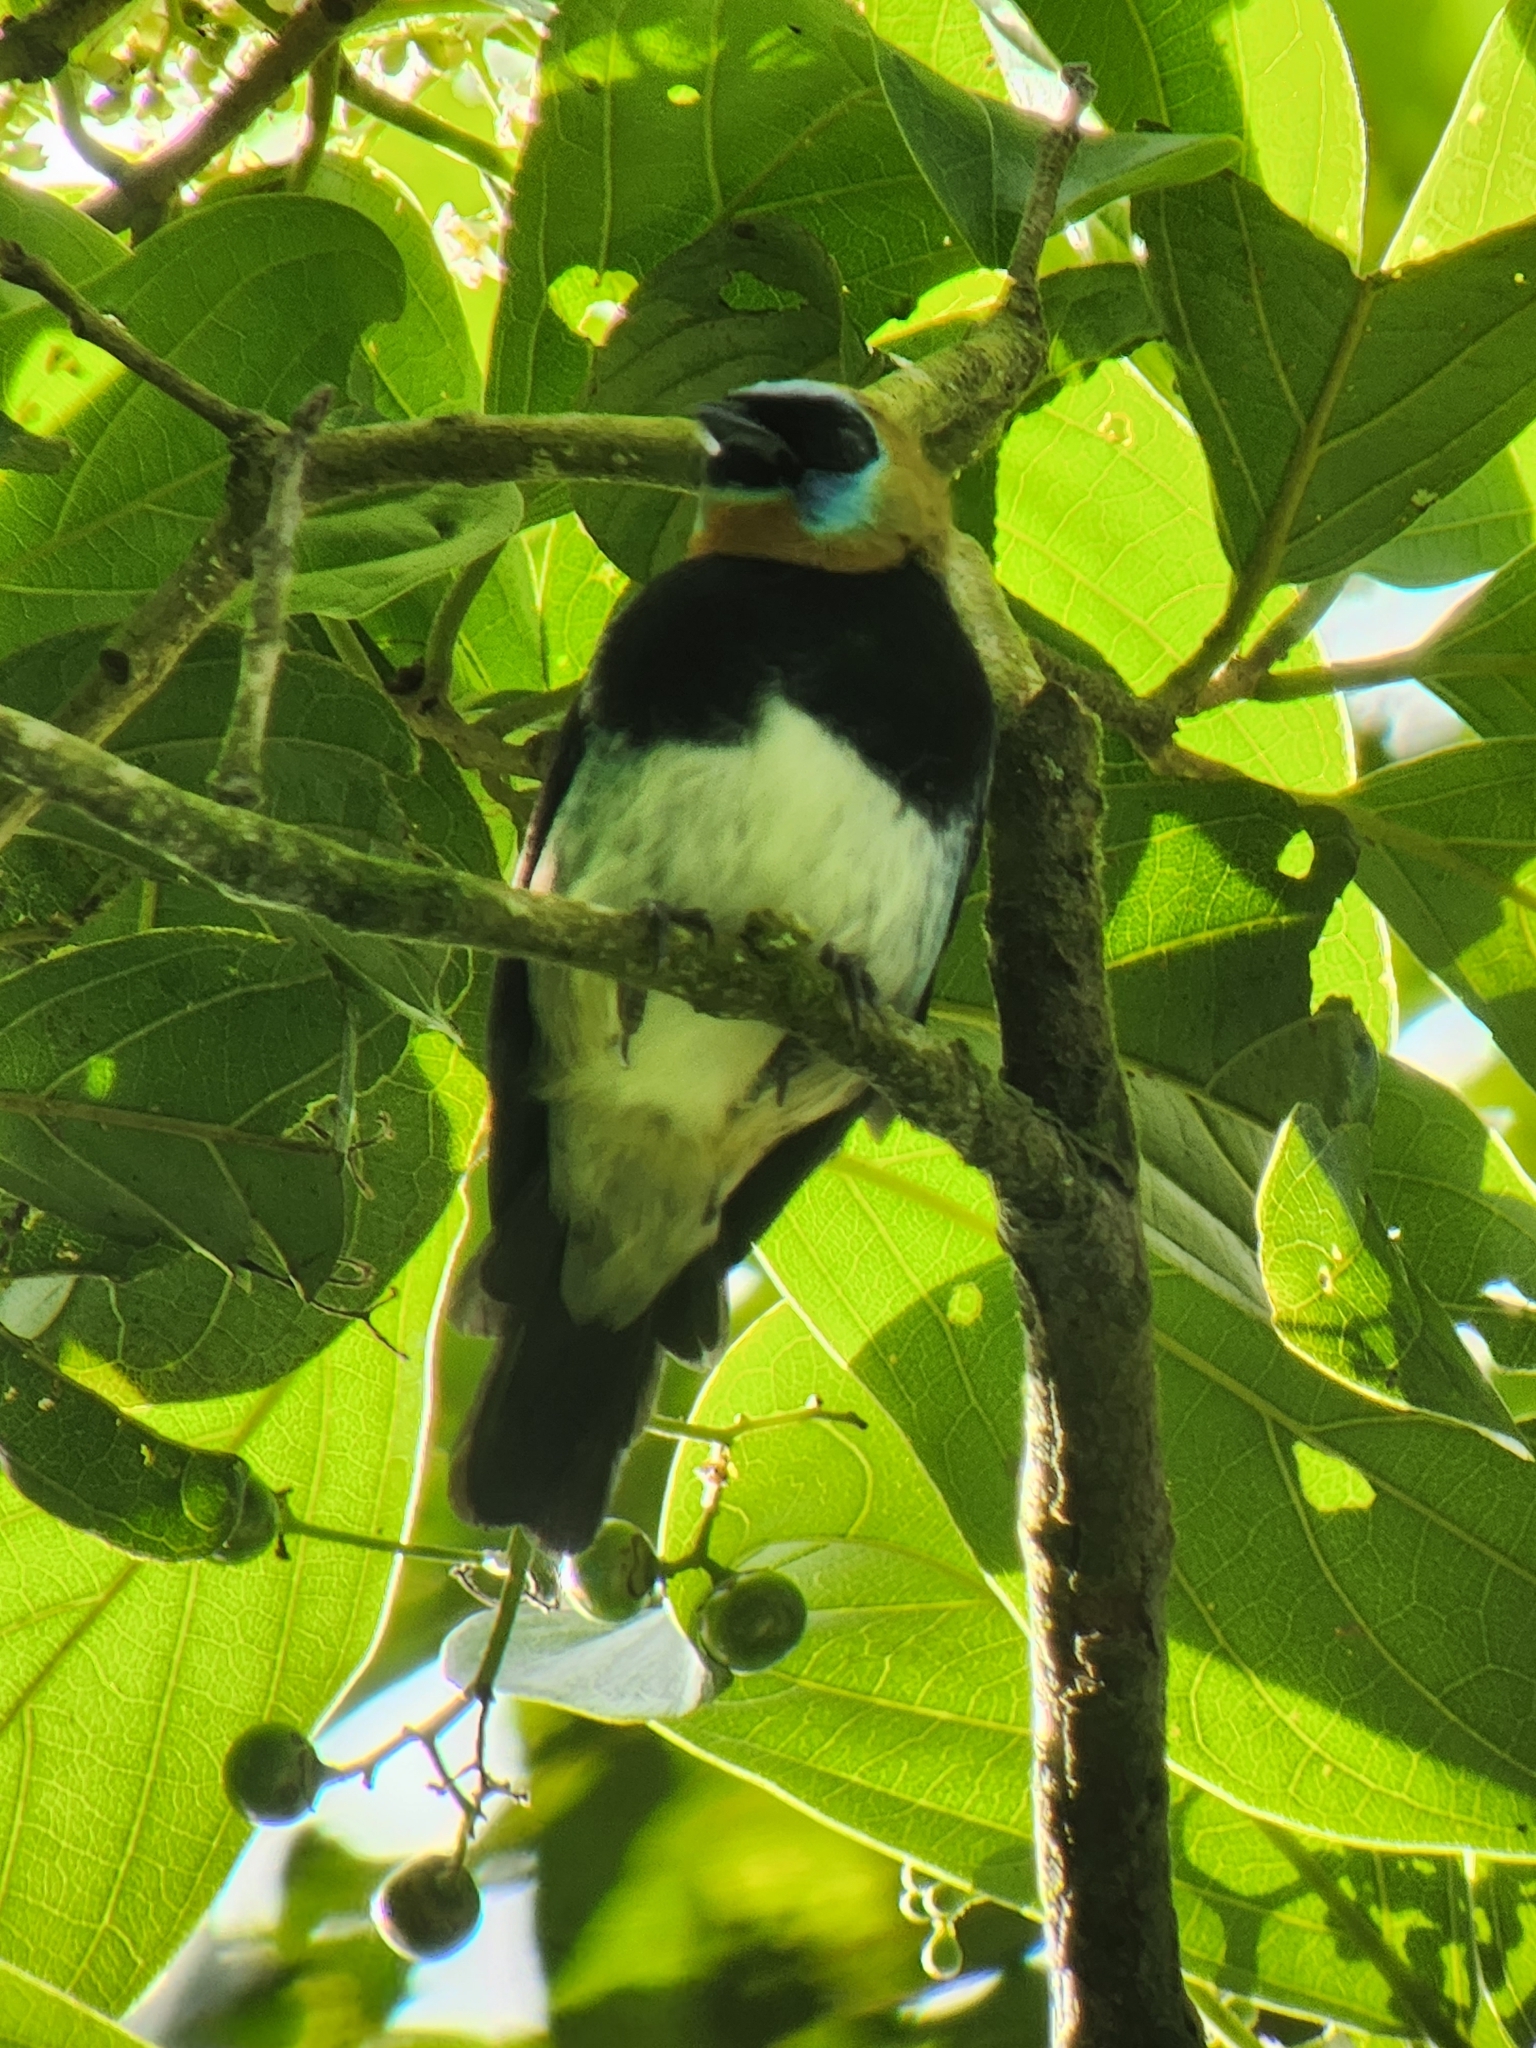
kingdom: Animalia
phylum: Chordata
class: Aves
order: Passeriformes
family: Thraupidae
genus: Stilpnia
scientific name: Stilpnia larvata
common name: Golden-hooded tanager
